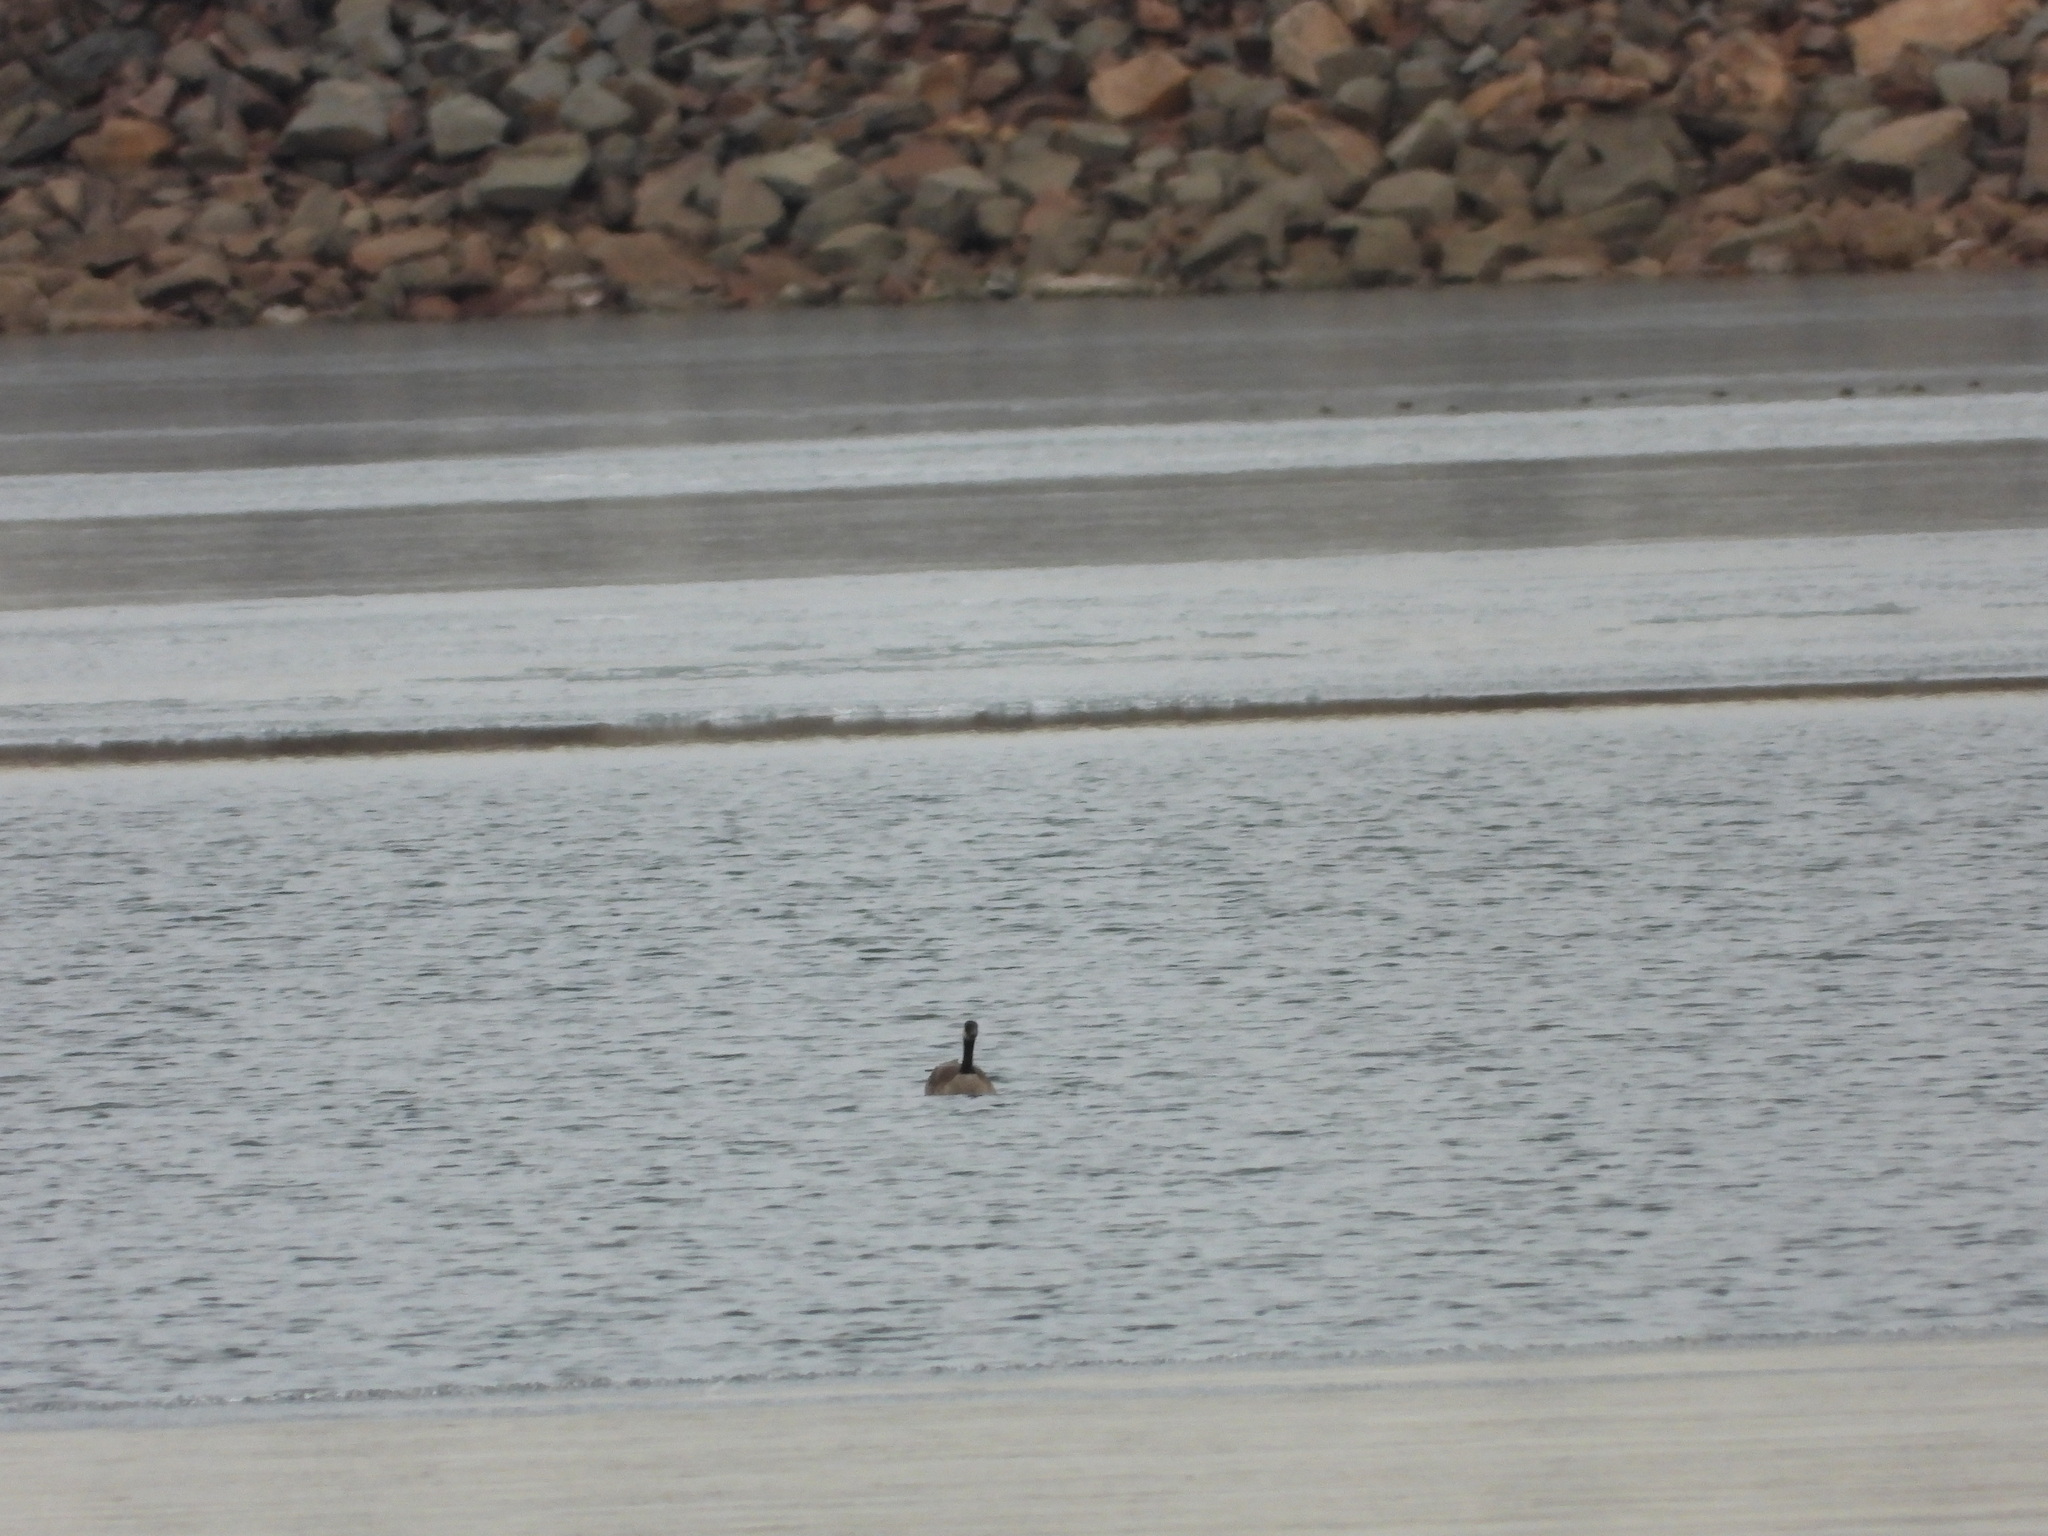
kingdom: Animalia
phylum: Chordata
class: Aves
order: Anseriformes
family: Anatidae
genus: Branta
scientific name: Branta canadensis
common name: Canada goose
